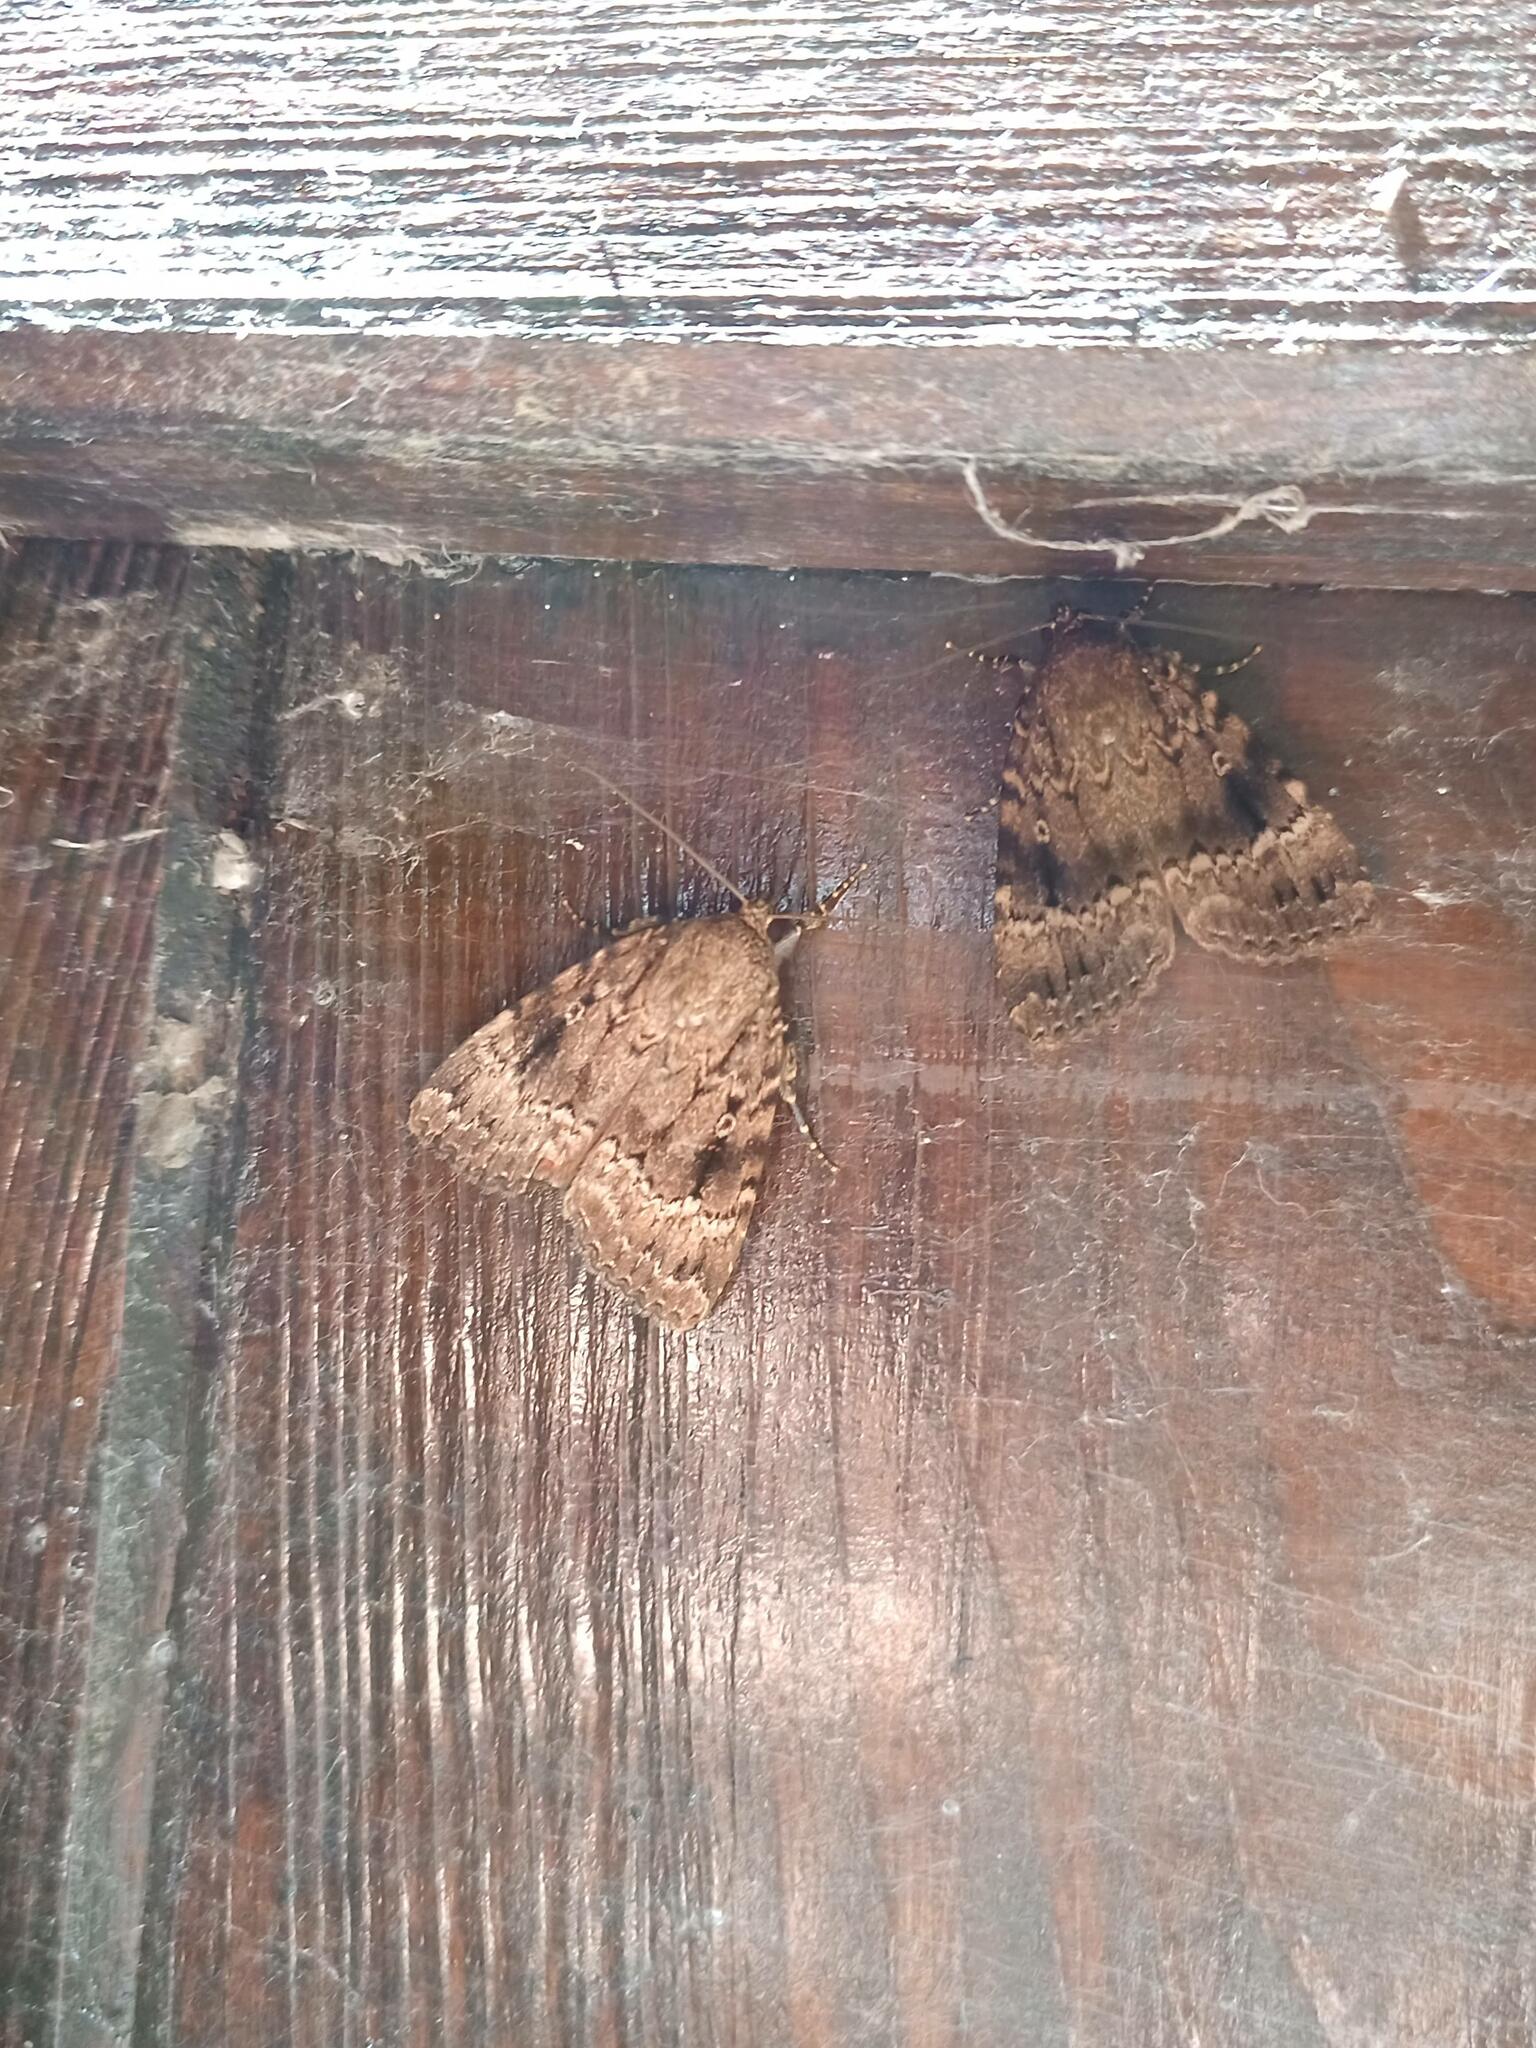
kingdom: Animalia
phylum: Arthropoda
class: Insecta
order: Lepidoptera
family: Noctuidae
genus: Amphipyra
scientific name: Amphipyra pyramidea
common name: Copper underwing
